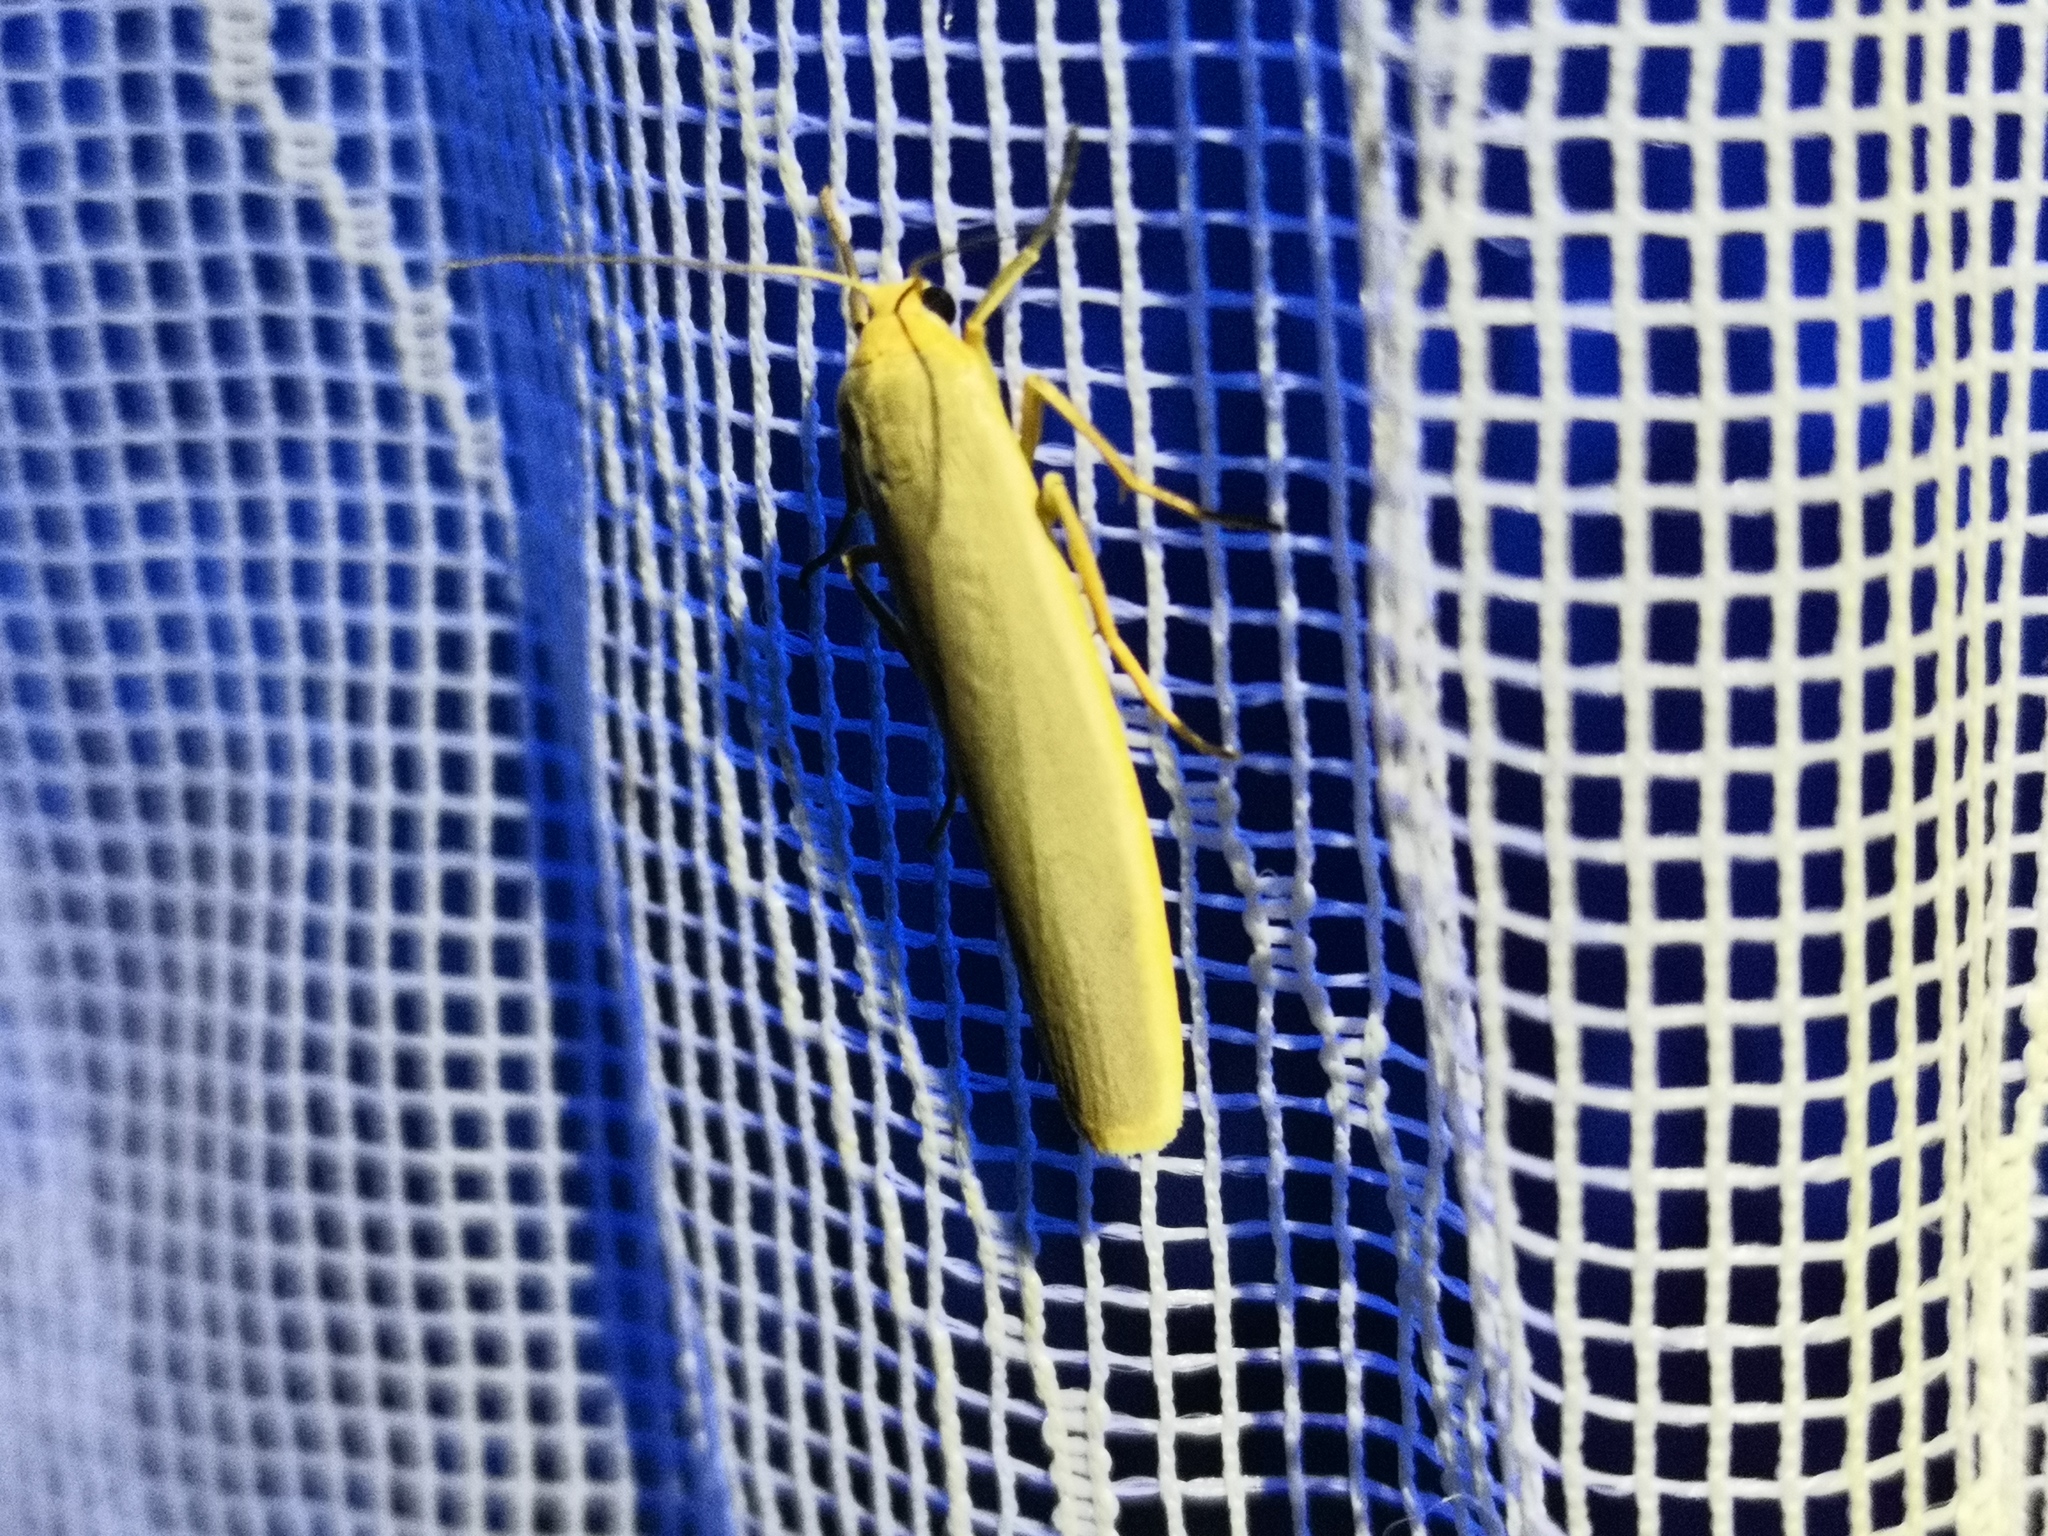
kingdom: Animalia
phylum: Arthropoda
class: Insecta
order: Lepidoptera
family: Erebidae
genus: Manulea
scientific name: Manulea complana
